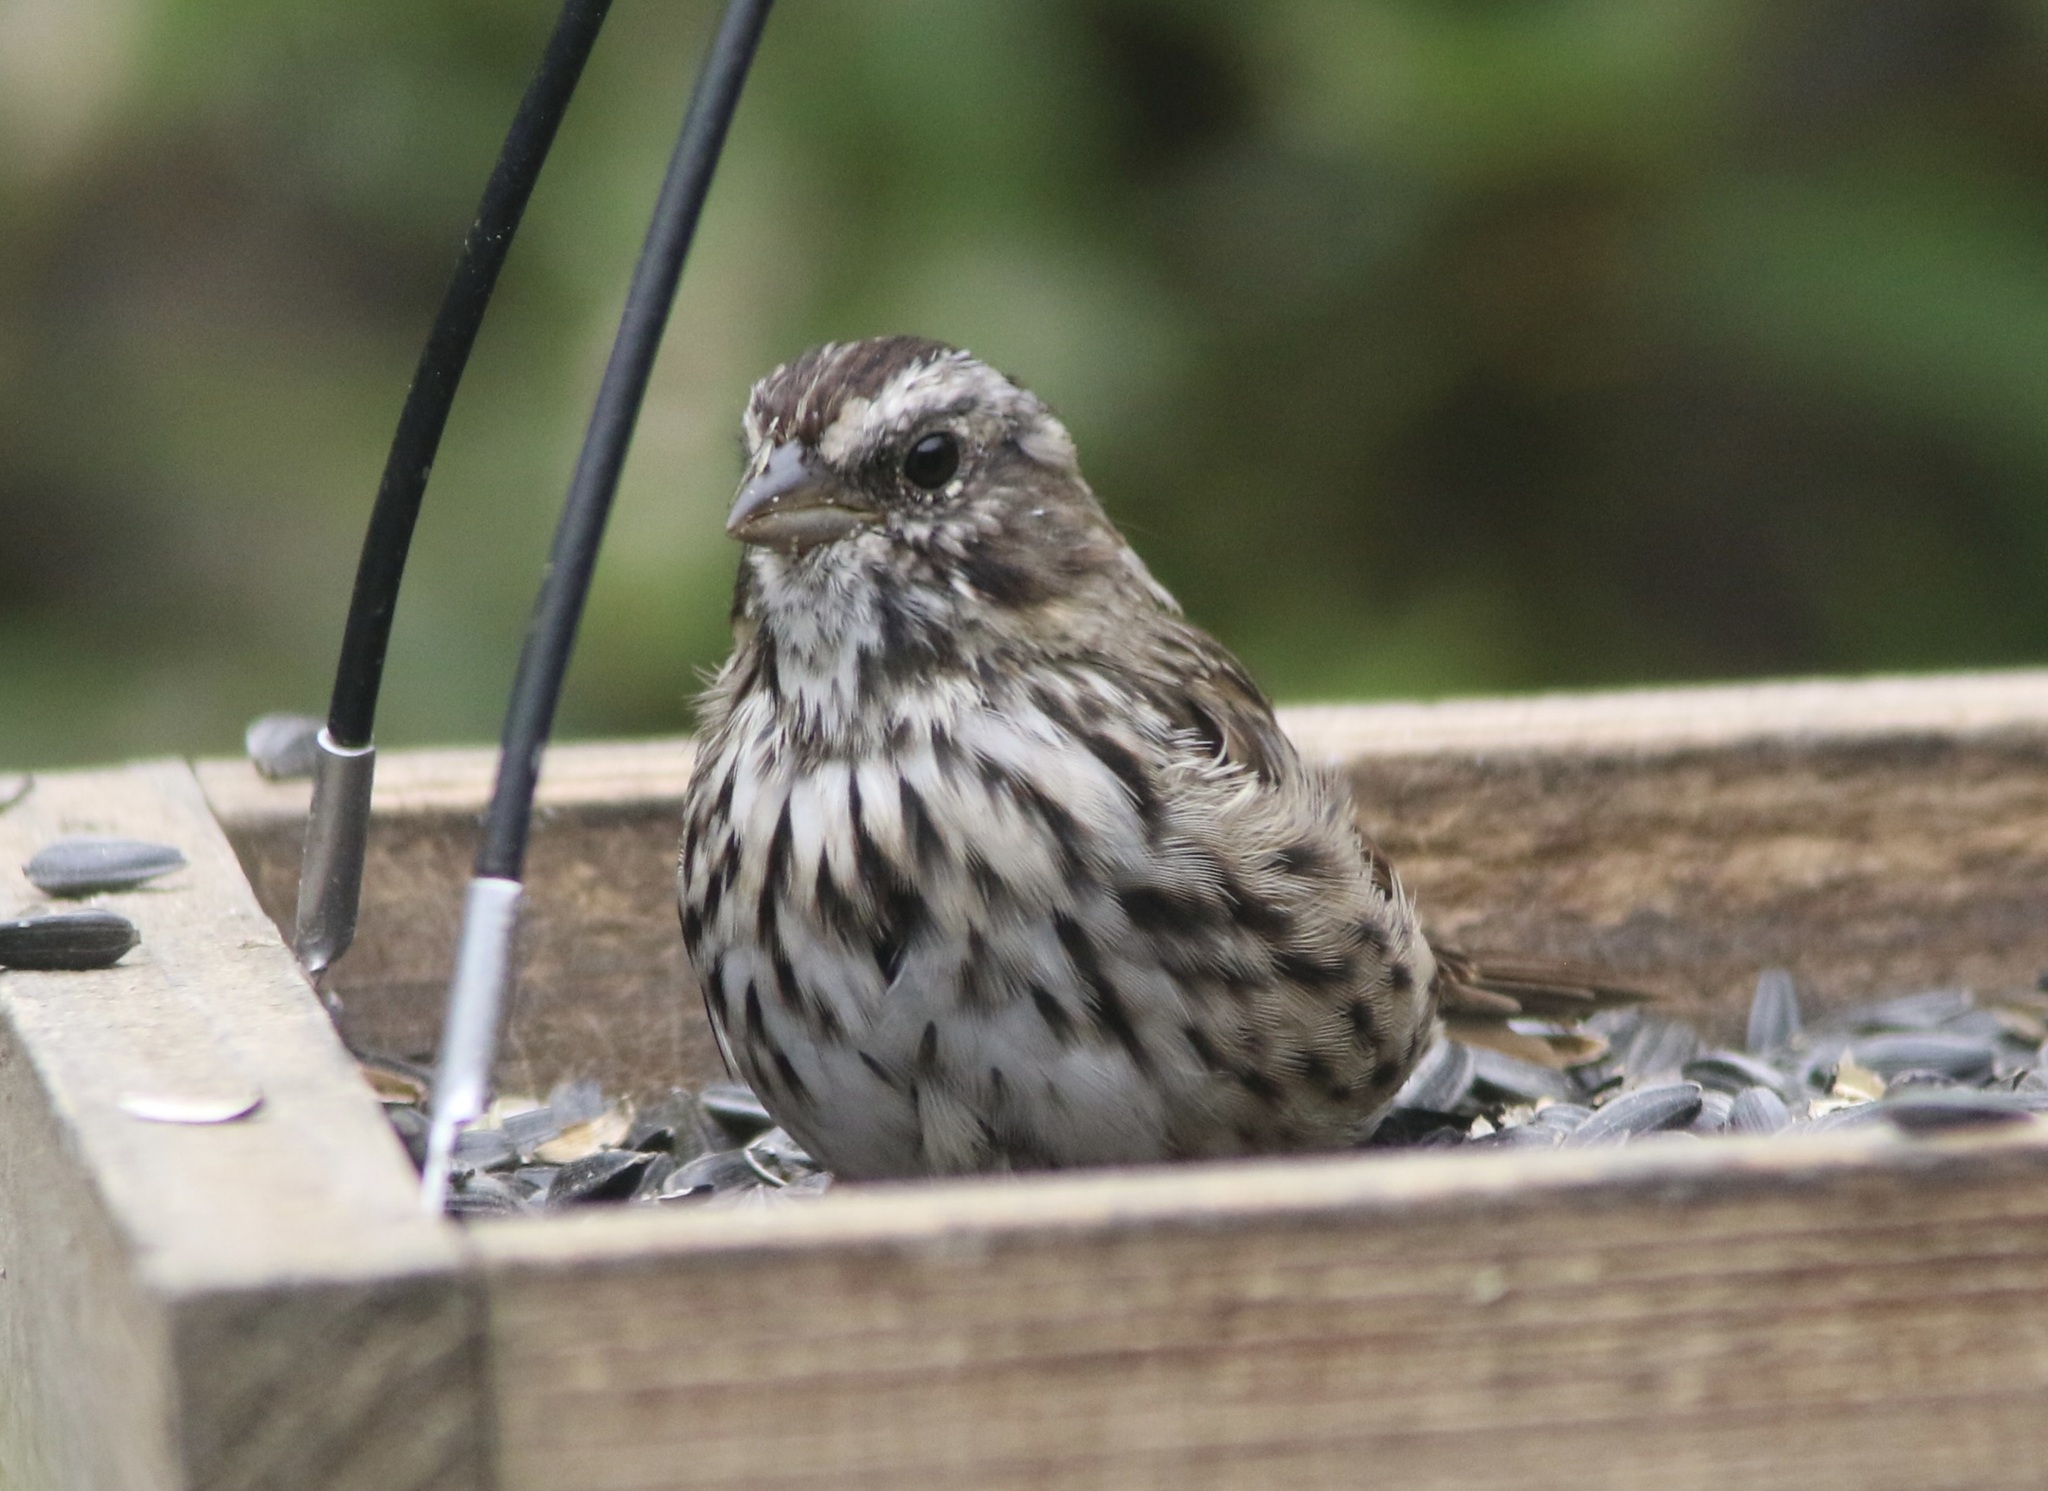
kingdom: Animalia
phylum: Chordata
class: Aves
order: Passeriformes
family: Passerellidae
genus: Melospiza
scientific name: Melospiza melodia
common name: Song sparrow
